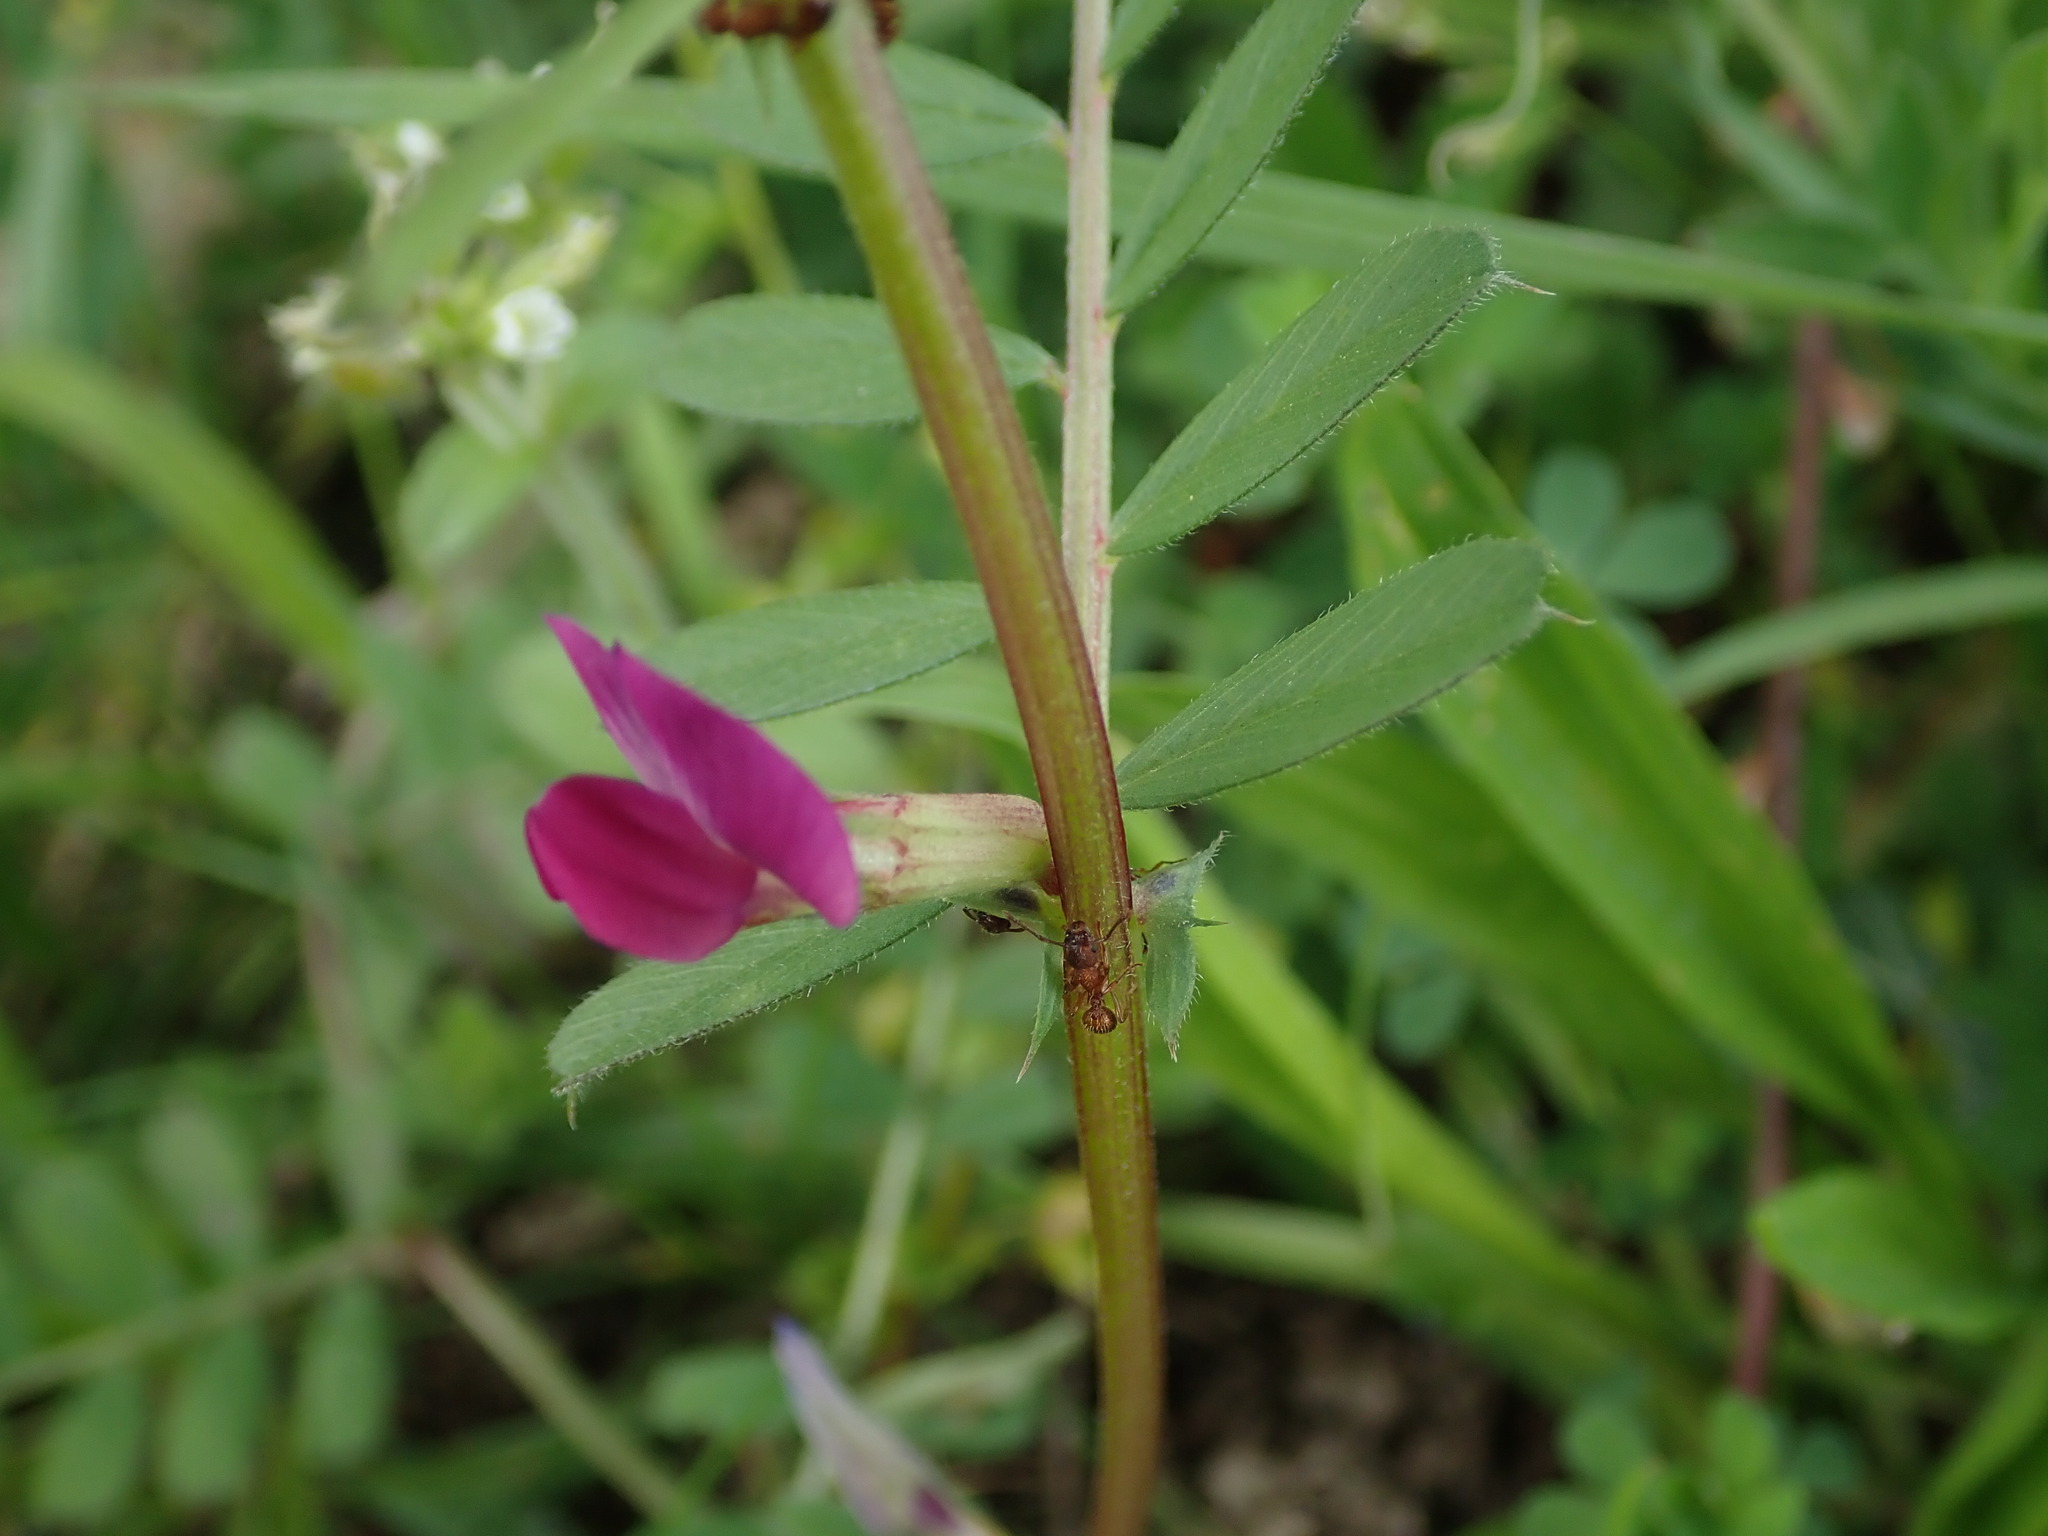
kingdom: Plantae
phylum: Tracheophyta
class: Magnoliopsida
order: Fabales
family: Fabaceae
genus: Vicia
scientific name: Vicia sativa
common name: Garden vetch
